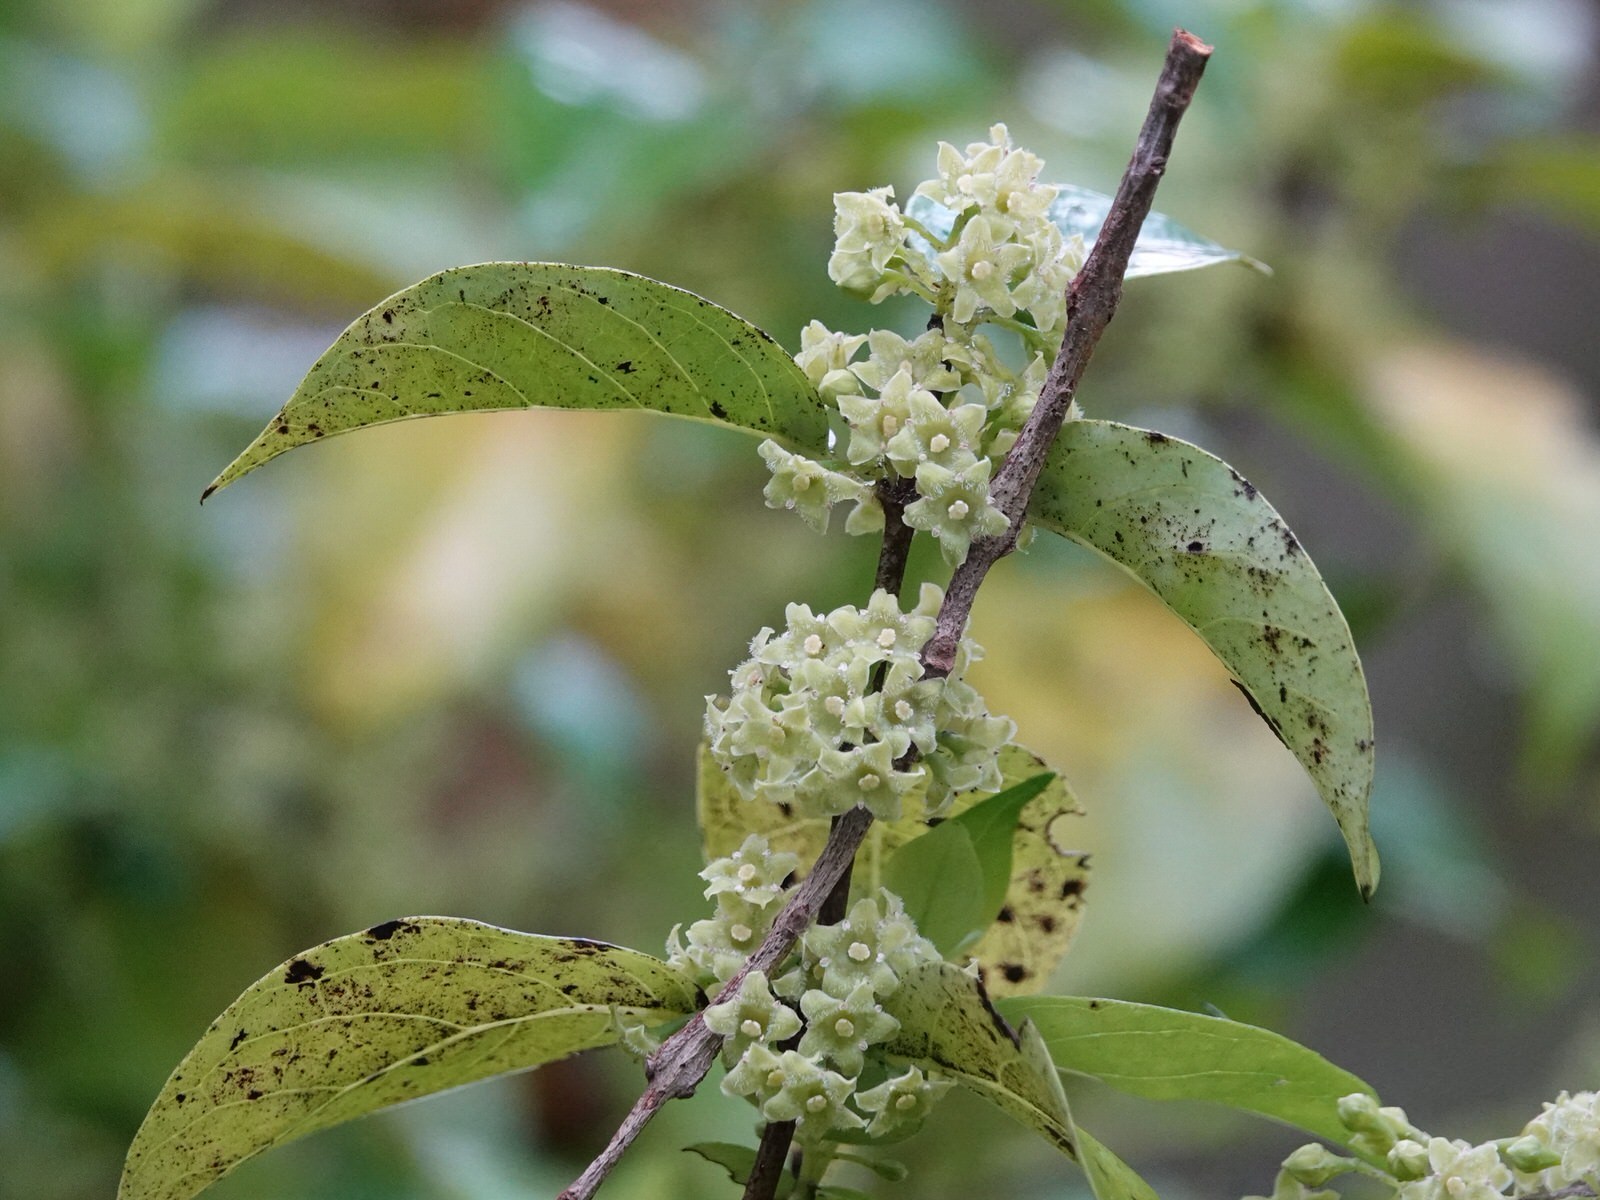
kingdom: Plantae
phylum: Tracheophyta
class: Magnoliopsida
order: Gentianales
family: Loganiaceae
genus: Geniostoma
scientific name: Geniostoma ligustrifolium
